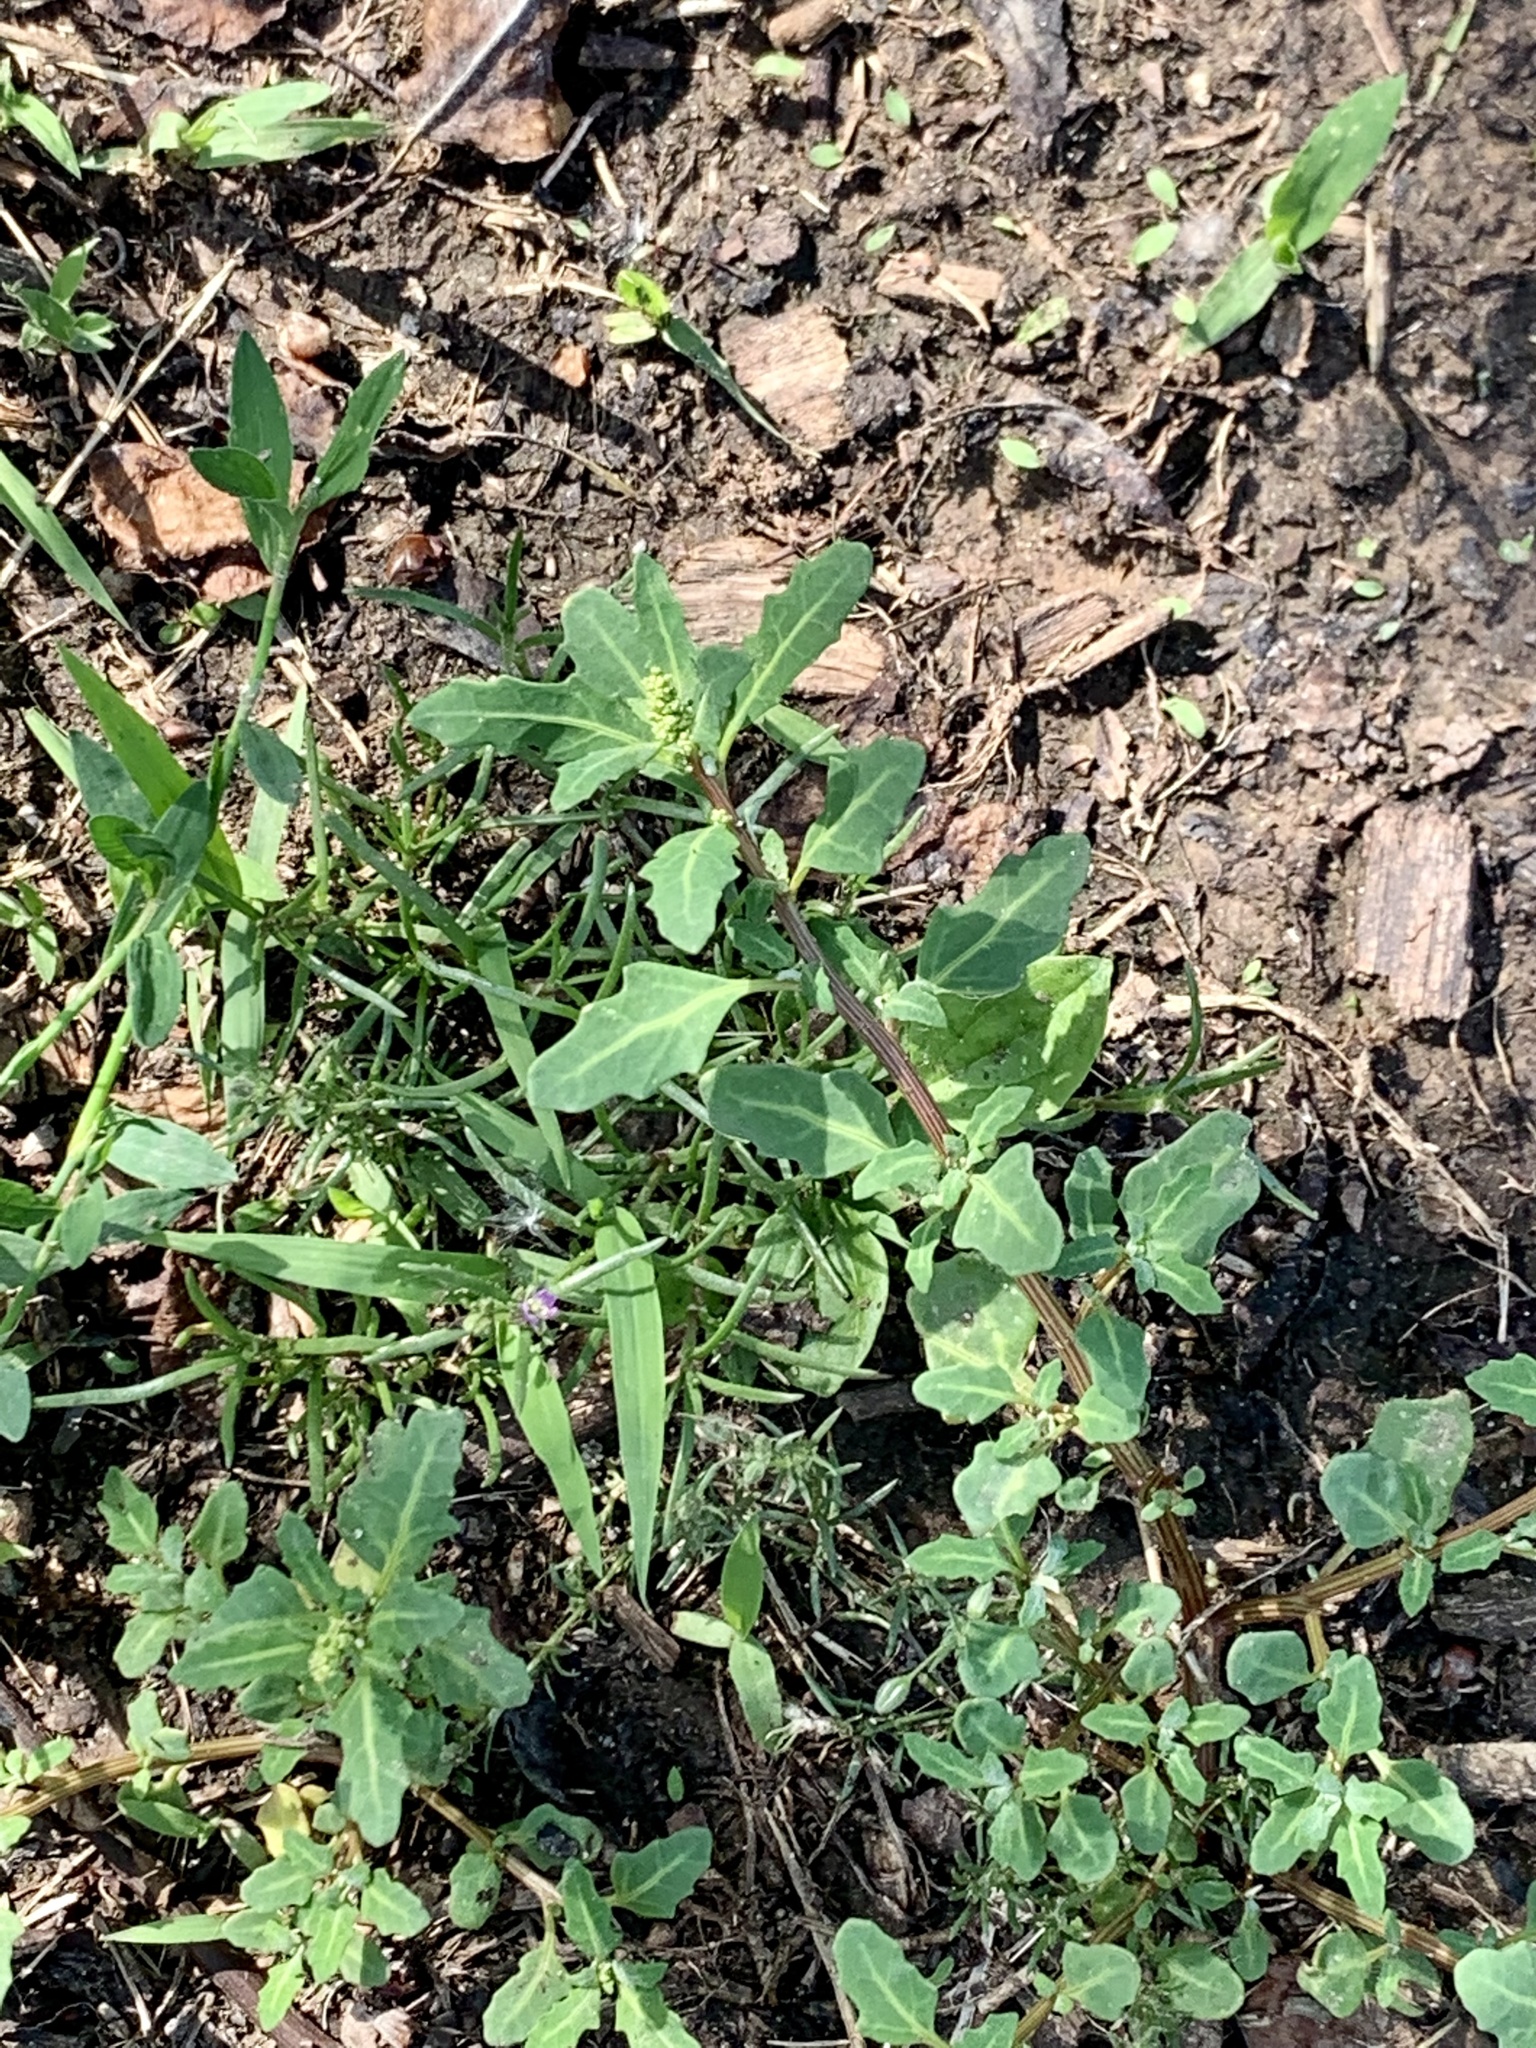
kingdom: Plantae
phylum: Tracheophyta
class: Magnoliopsida
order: Caryophyllales
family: Amaranthaceae
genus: Oxybasis
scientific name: Oxybasis glauca
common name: Glaucous goosefoot
